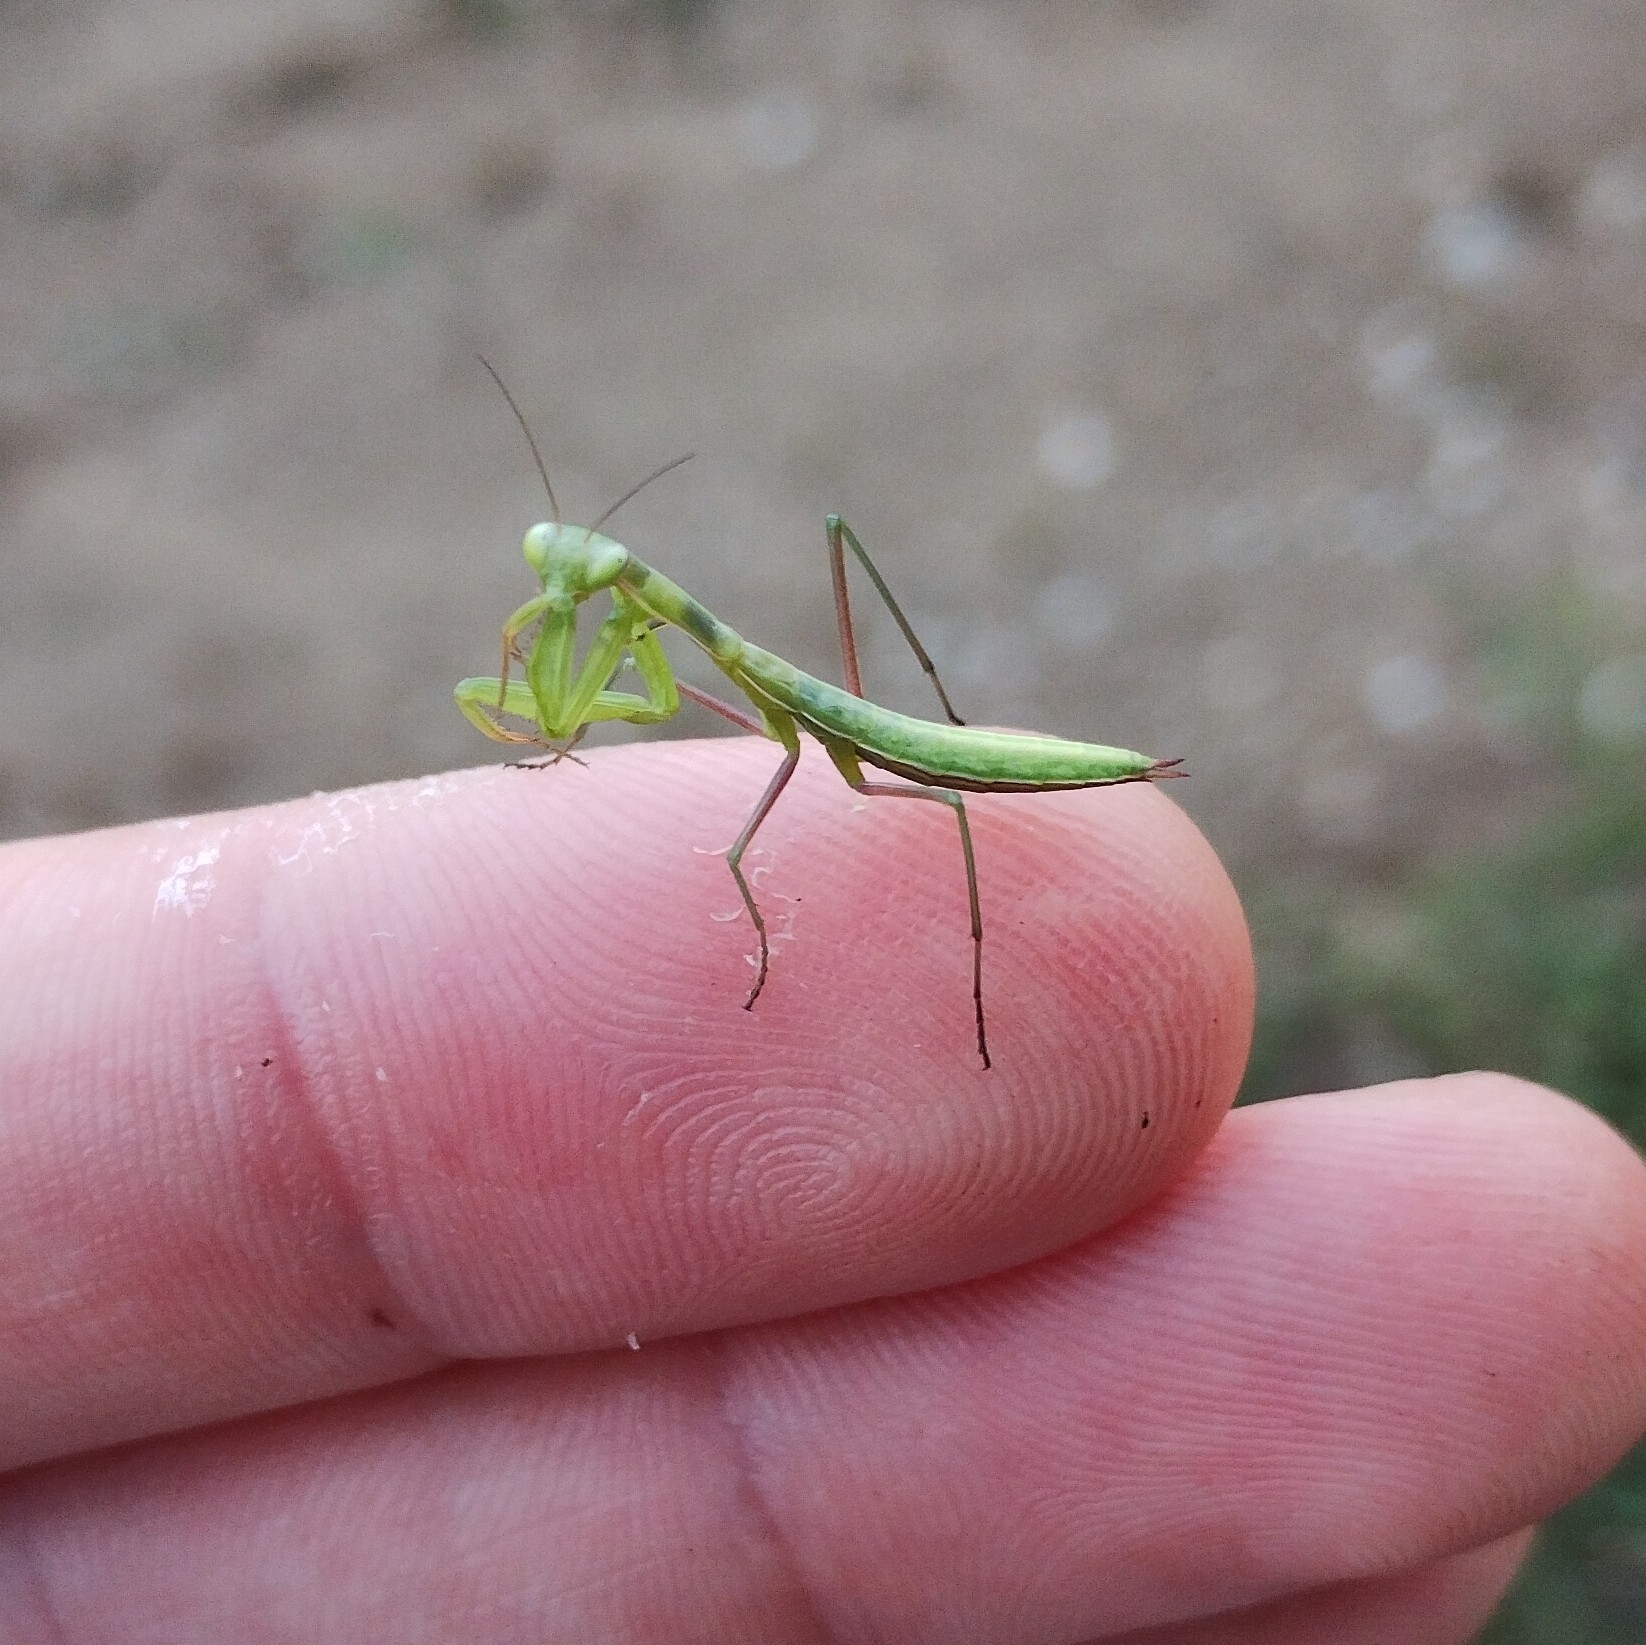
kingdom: Animalia
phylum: Arthropoda
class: Insecta
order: Mantodea
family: Mantidae
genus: Mantis
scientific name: Mantis religiosa
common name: Praying mantis
